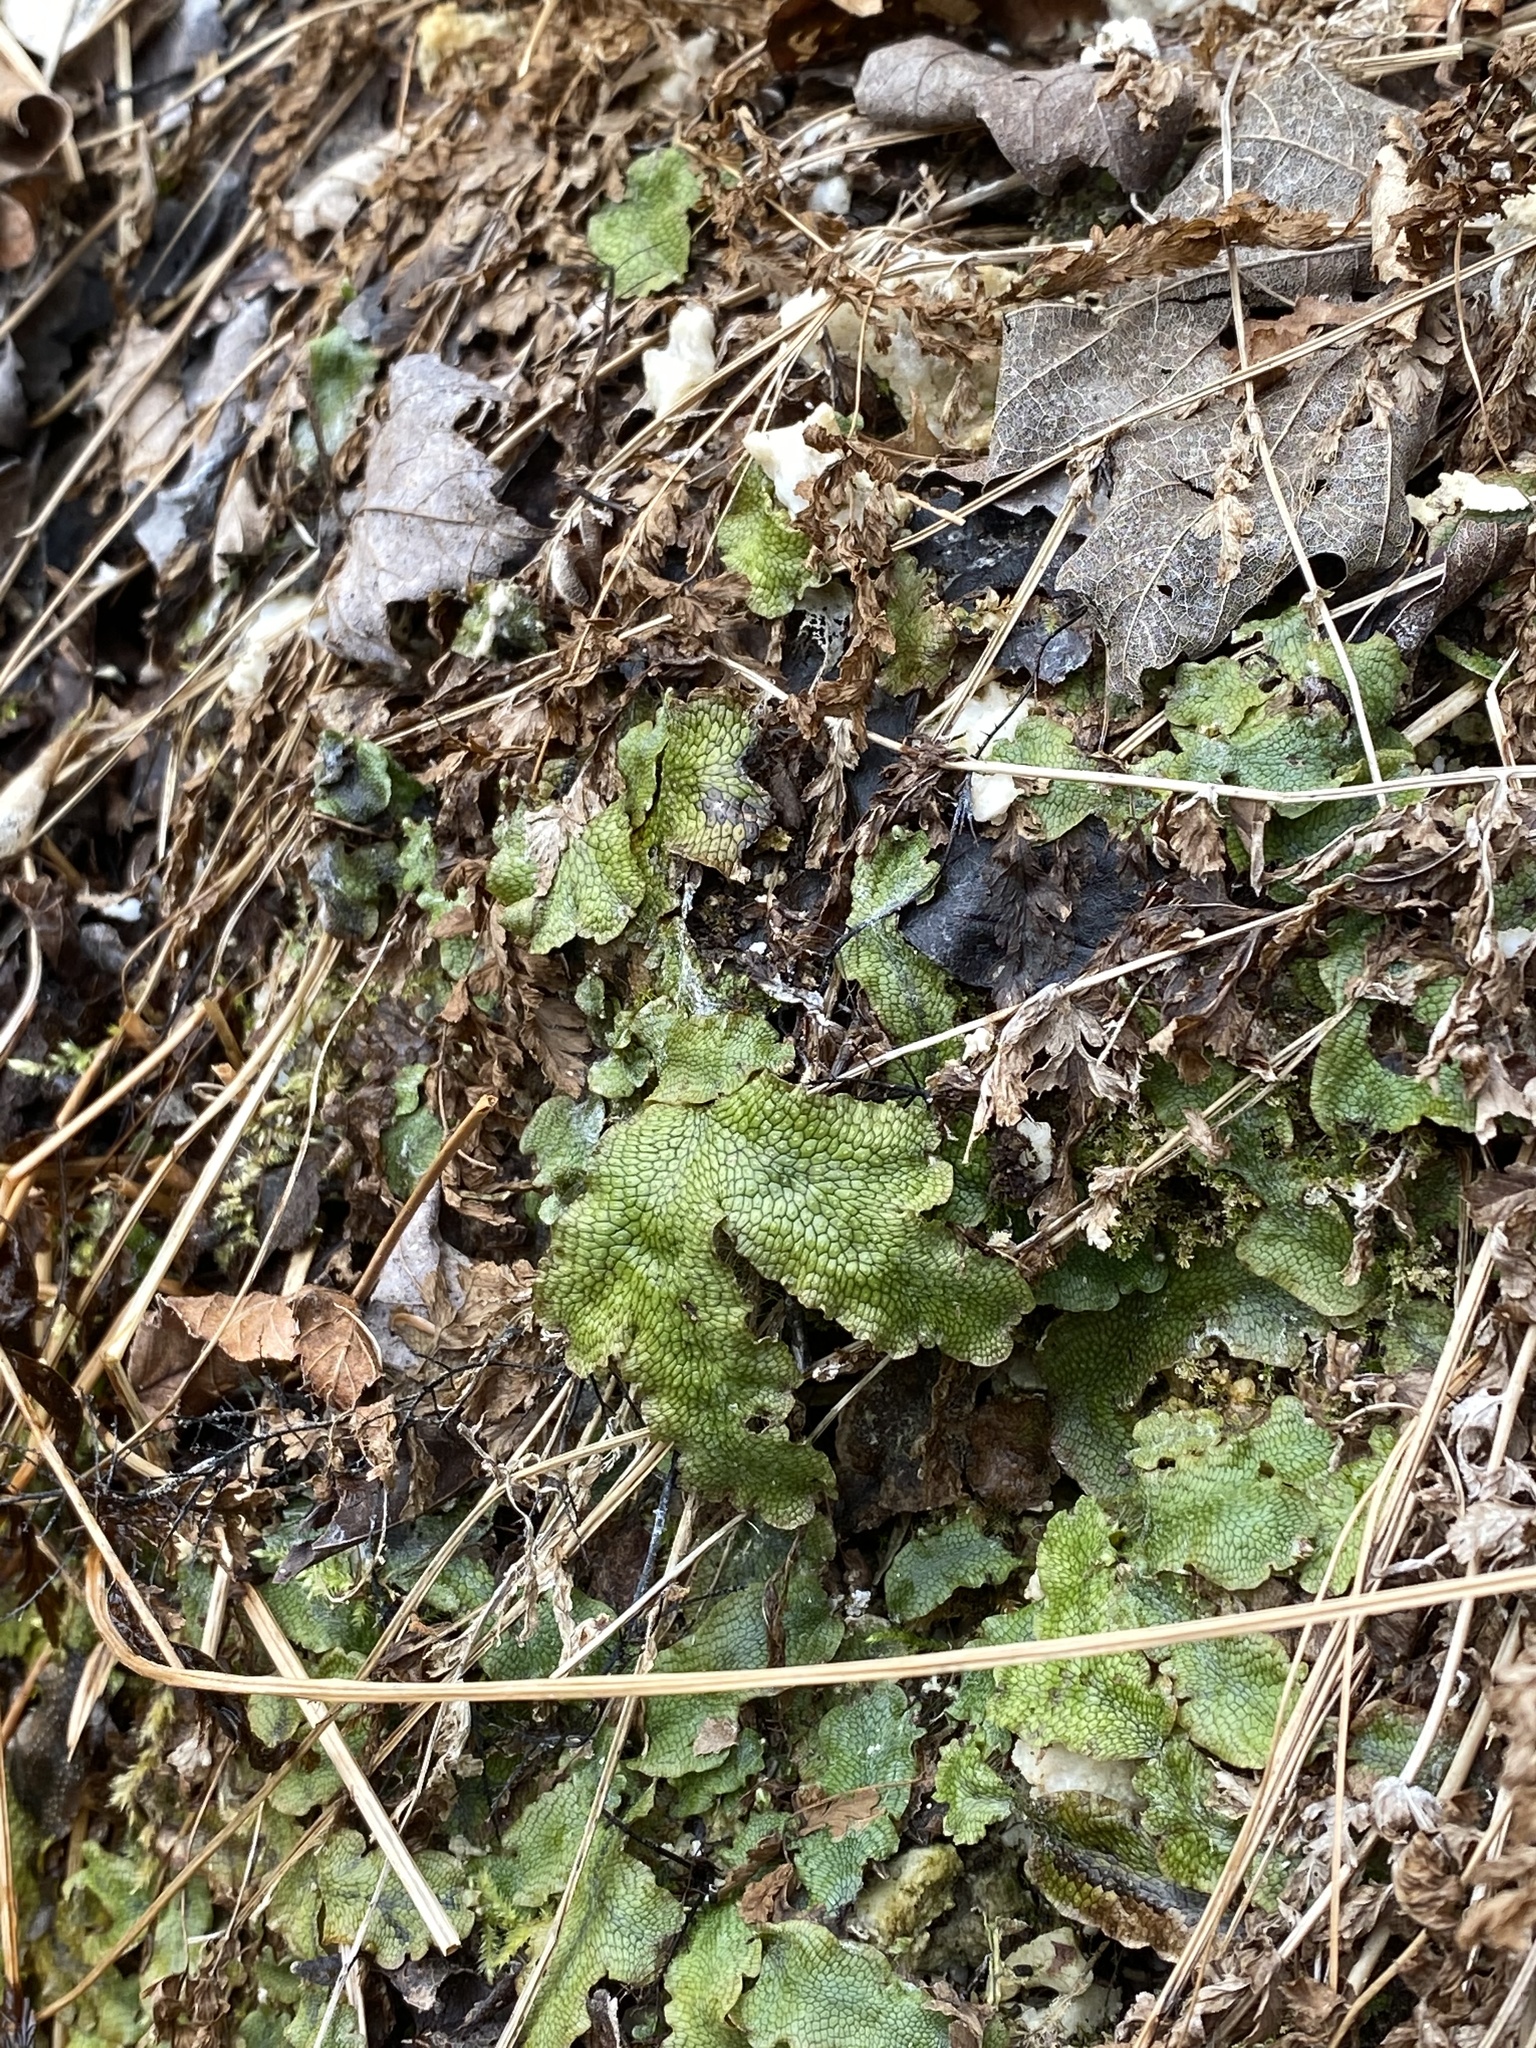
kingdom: Plantae
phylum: Marchantiophyta
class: Marchantiopsida
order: Marchantiales
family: Conocephalaceae
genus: Conocephalum
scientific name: Conocephalum salebrosum
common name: Cat-tongue liverwort
